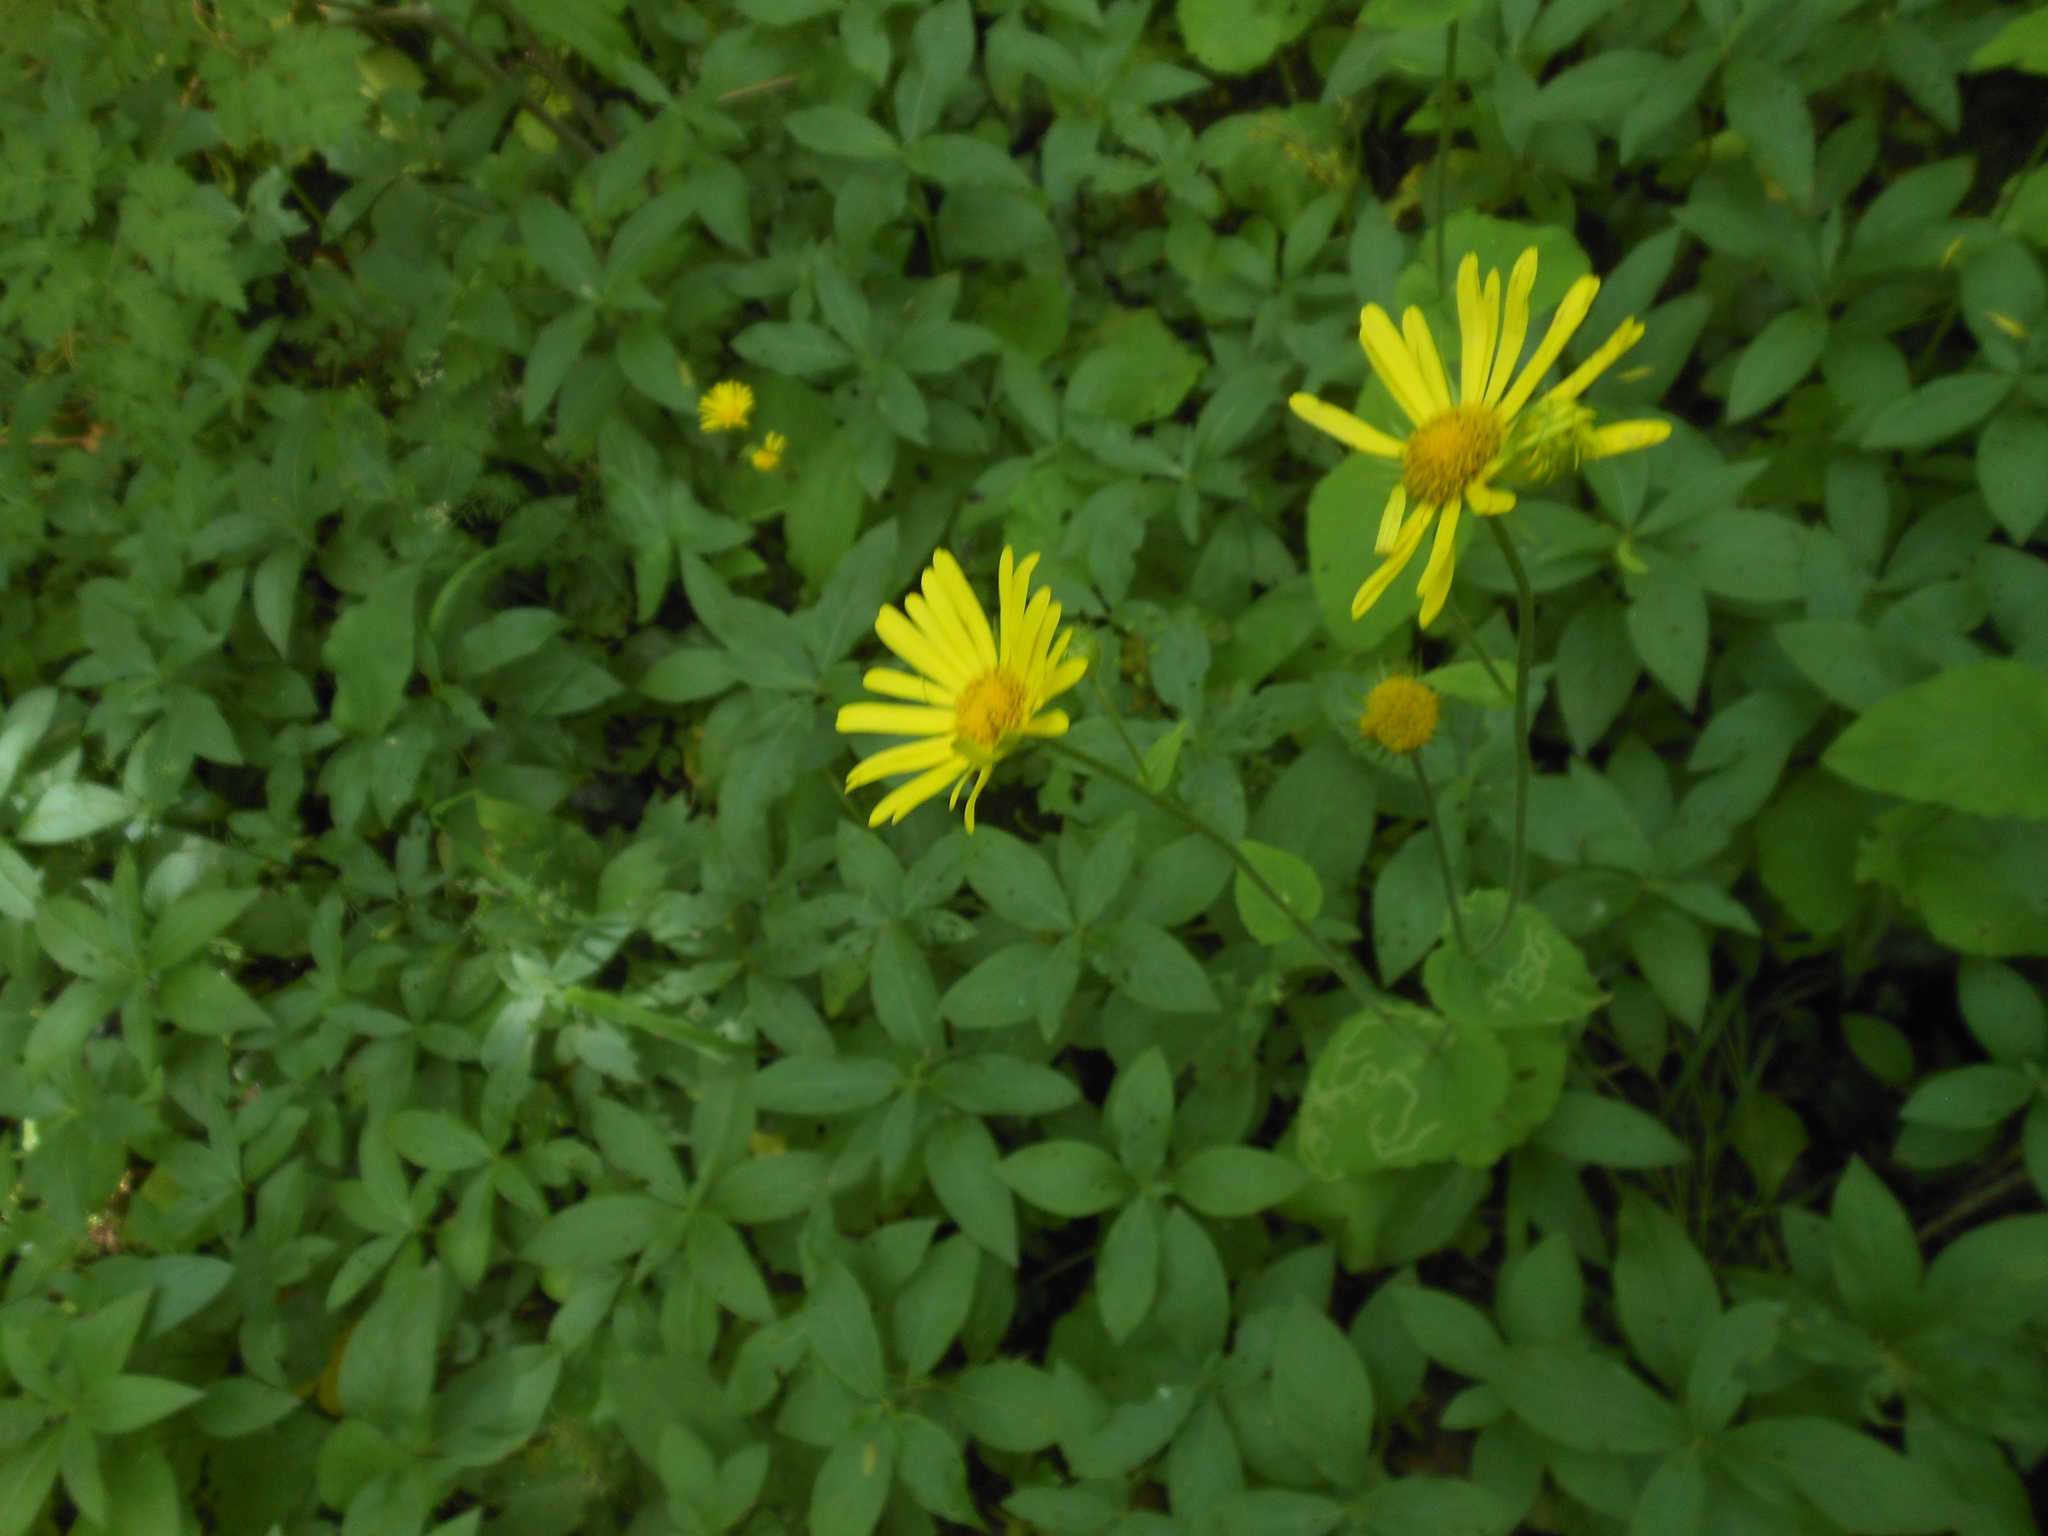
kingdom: Plantae
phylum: Tracheophyta
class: Magnoliopsida
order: Asterales
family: Asteraceae
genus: Doronicum
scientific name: Doronicum pardalianches
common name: Leopard's-bane
